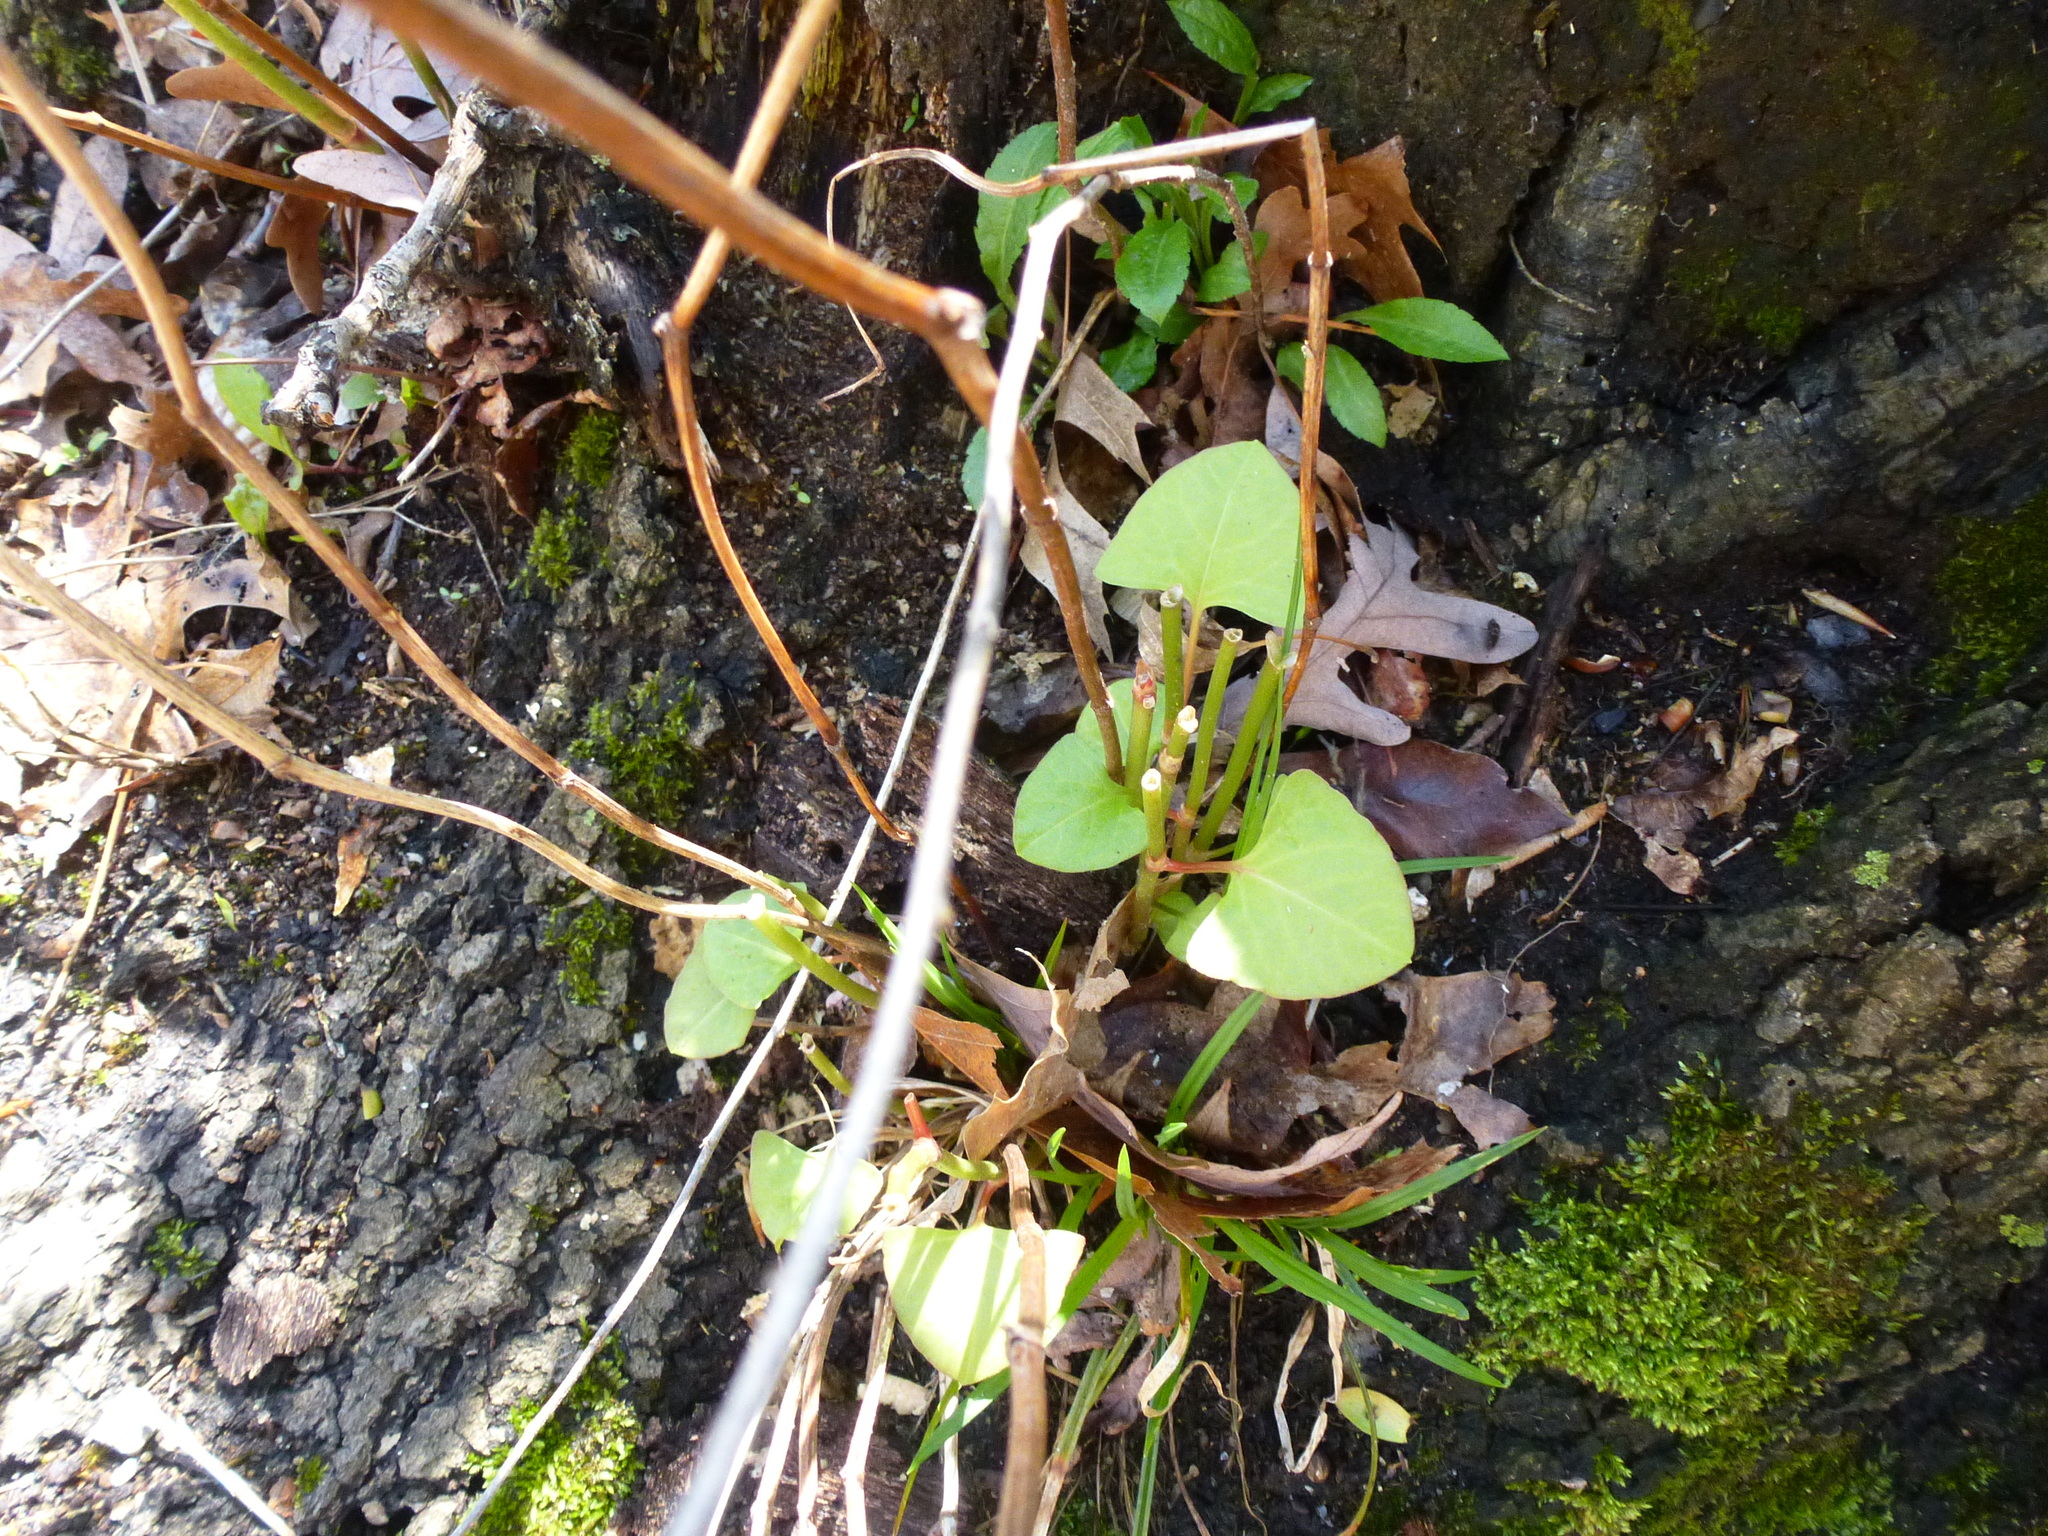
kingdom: Plantae
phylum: Tracheophyta
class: Magnoliopsida
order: Caryophyllales
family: Polygonaceae
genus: Reynoutria
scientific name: Reynoutria japonica
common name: Japanese knotweed
